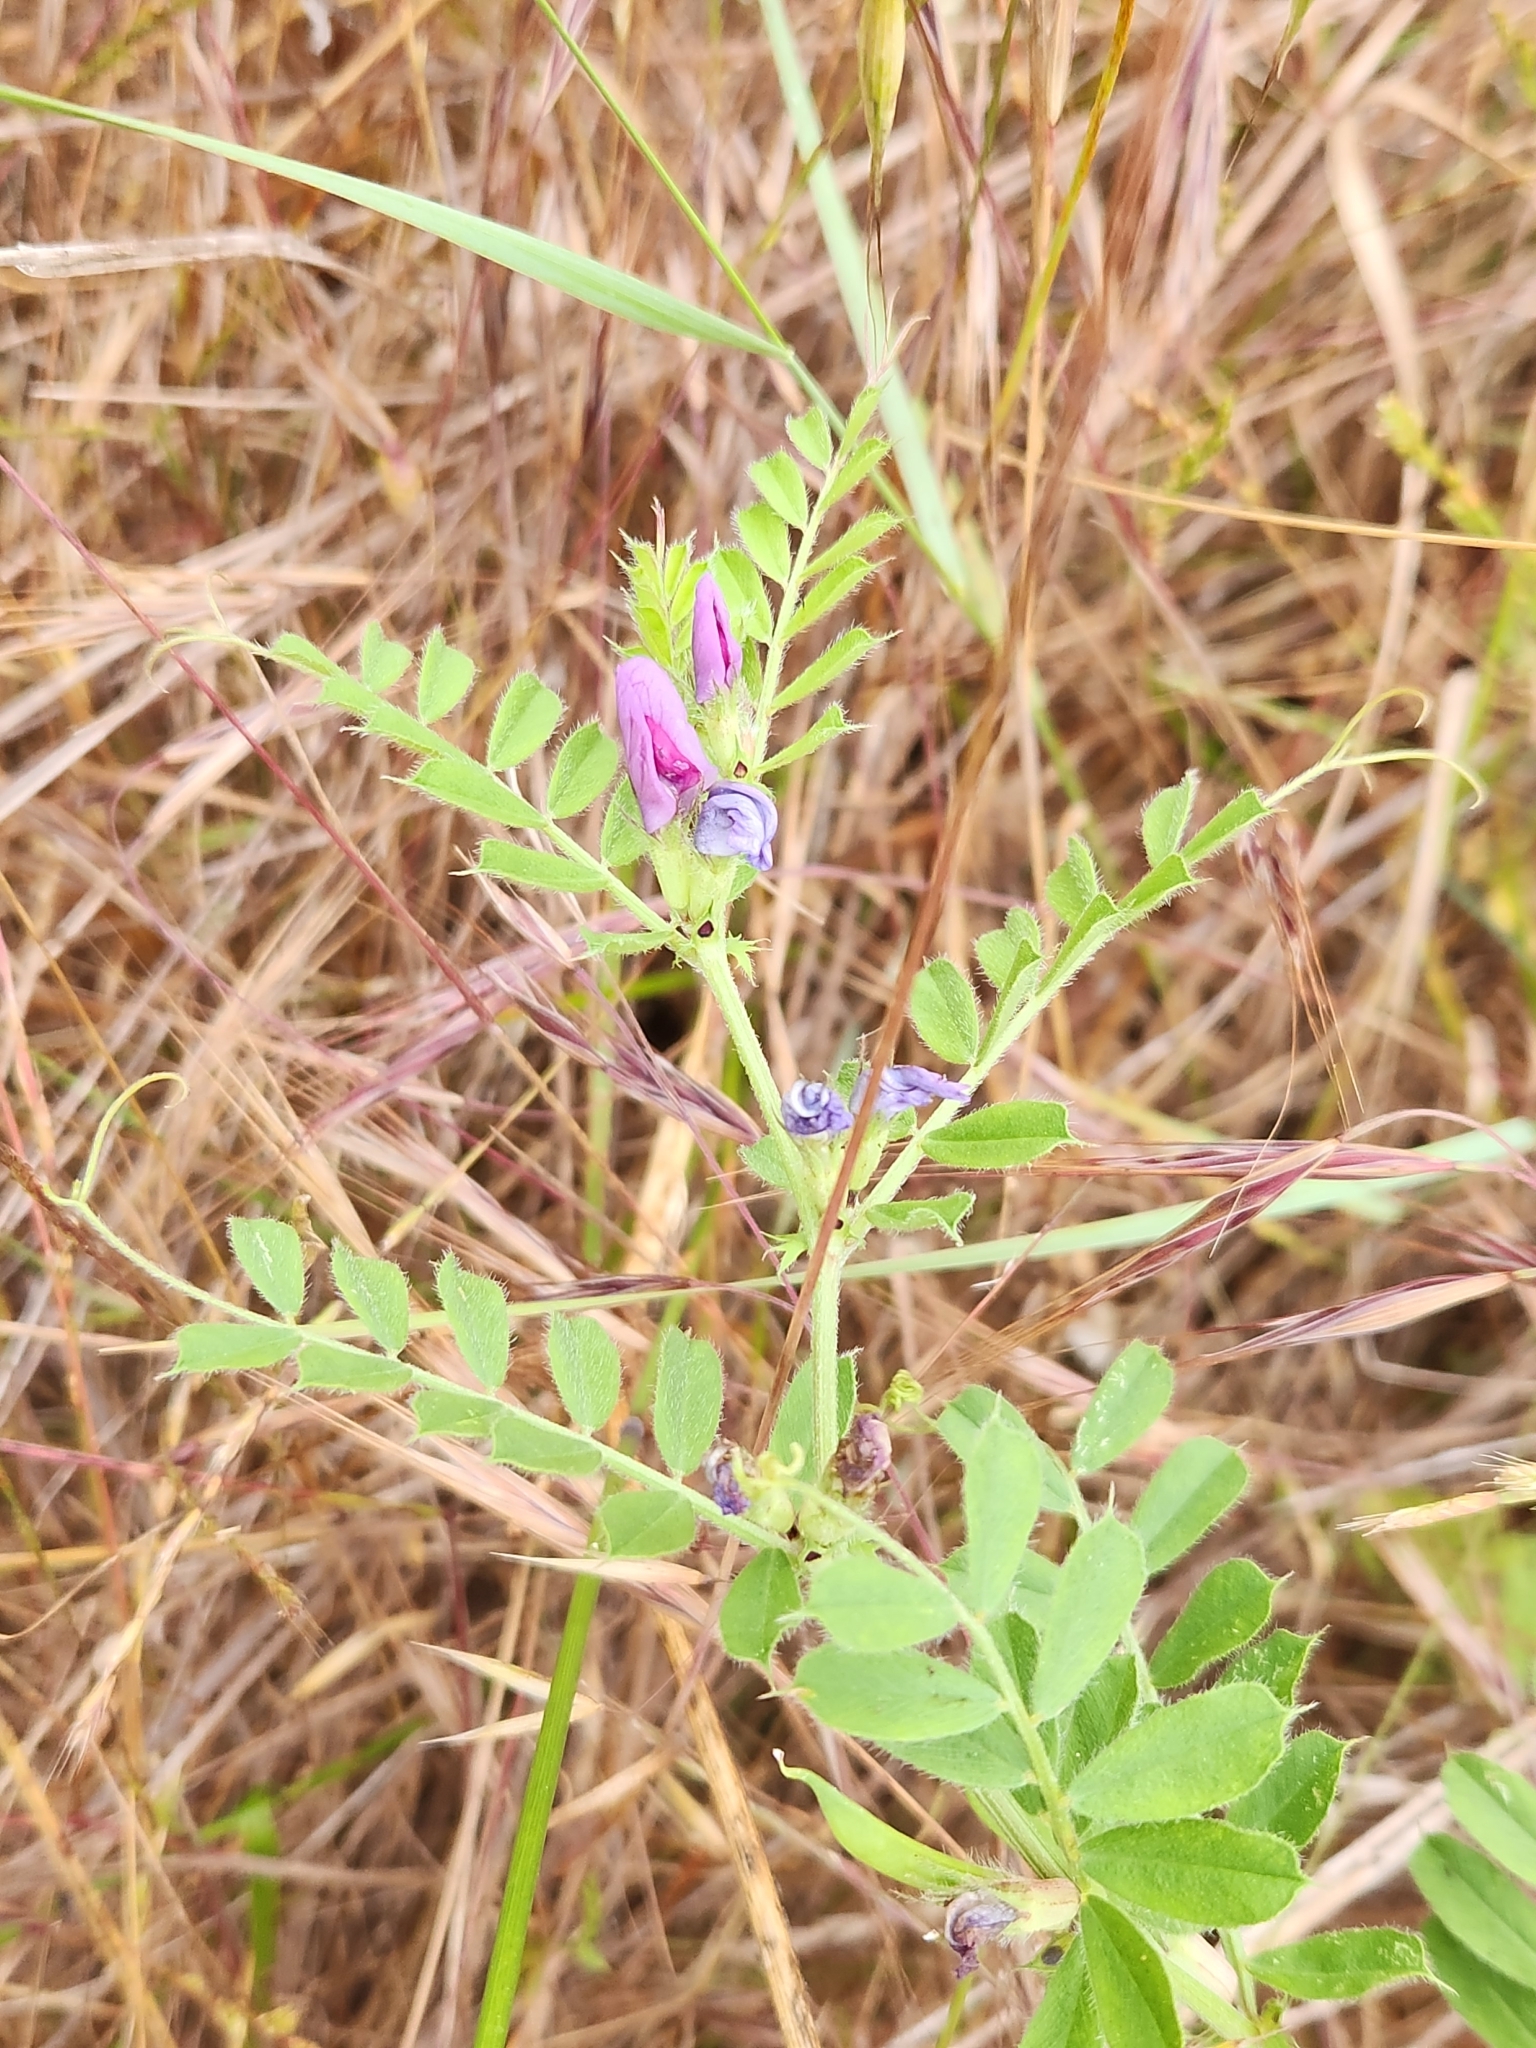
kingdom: Plantae
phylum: Tracheophyta
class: Magnoliopsida
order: Fabales
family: Fabaceae
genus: Vicia
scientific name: Vicia sativa
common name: Garden vetch
